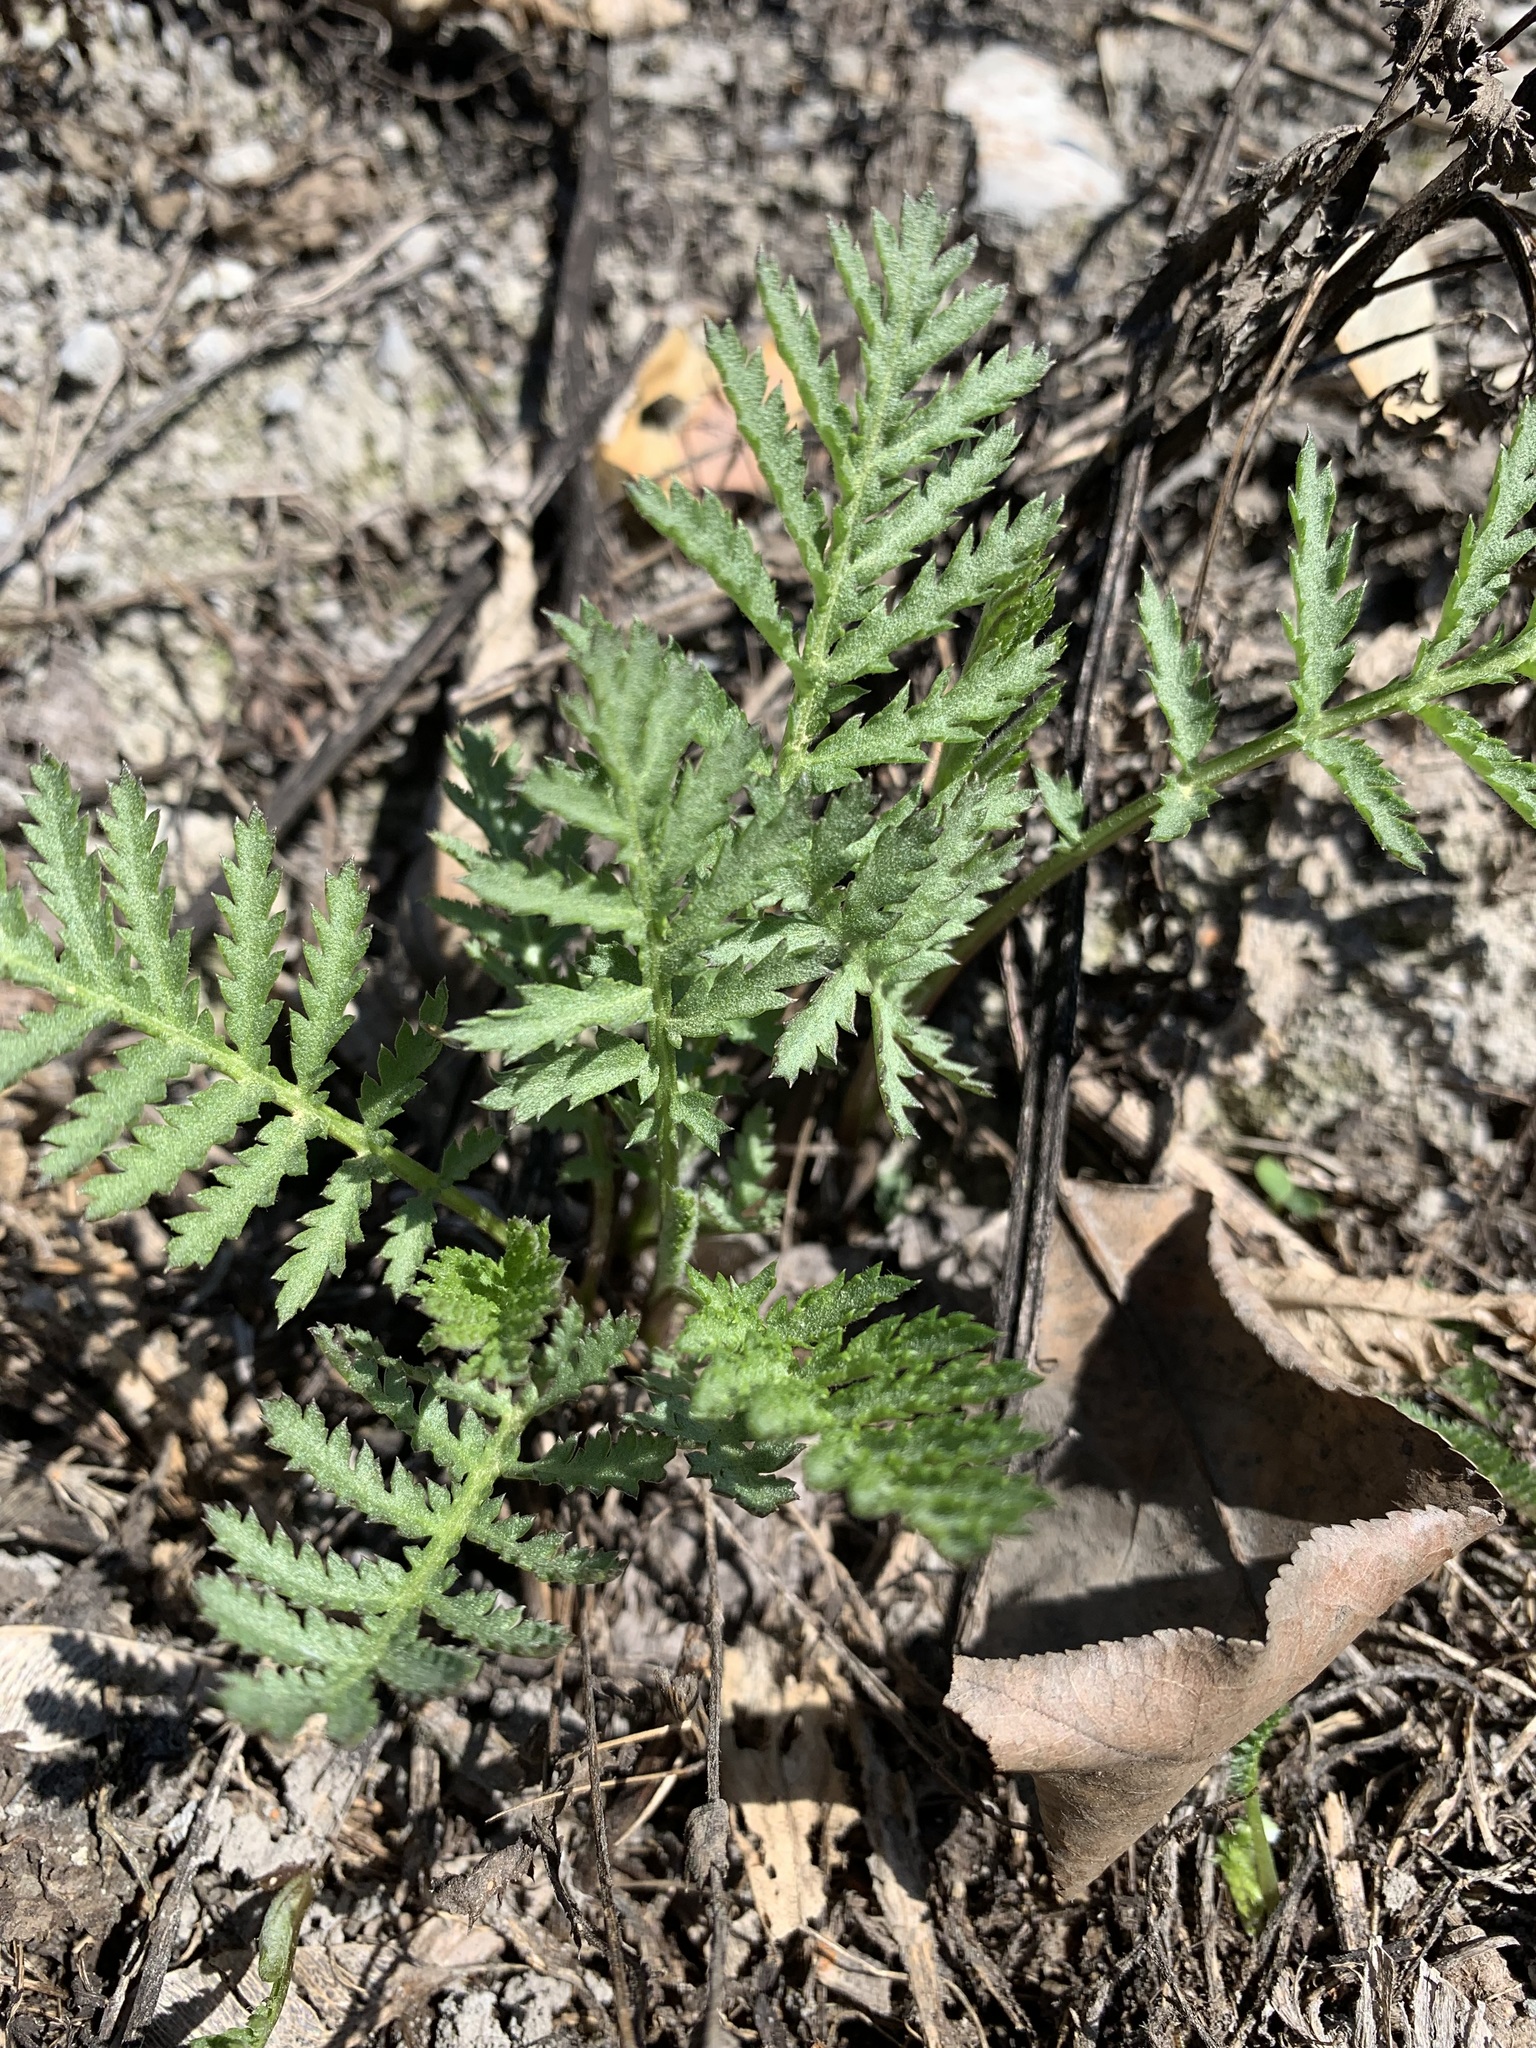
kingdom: Plantae
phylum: Tracheophyta
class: Magnoliopsida
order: Asterales
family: Asteraceae
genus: Tanacetum
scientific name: Tanacetum vulgare
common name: Common tansy
